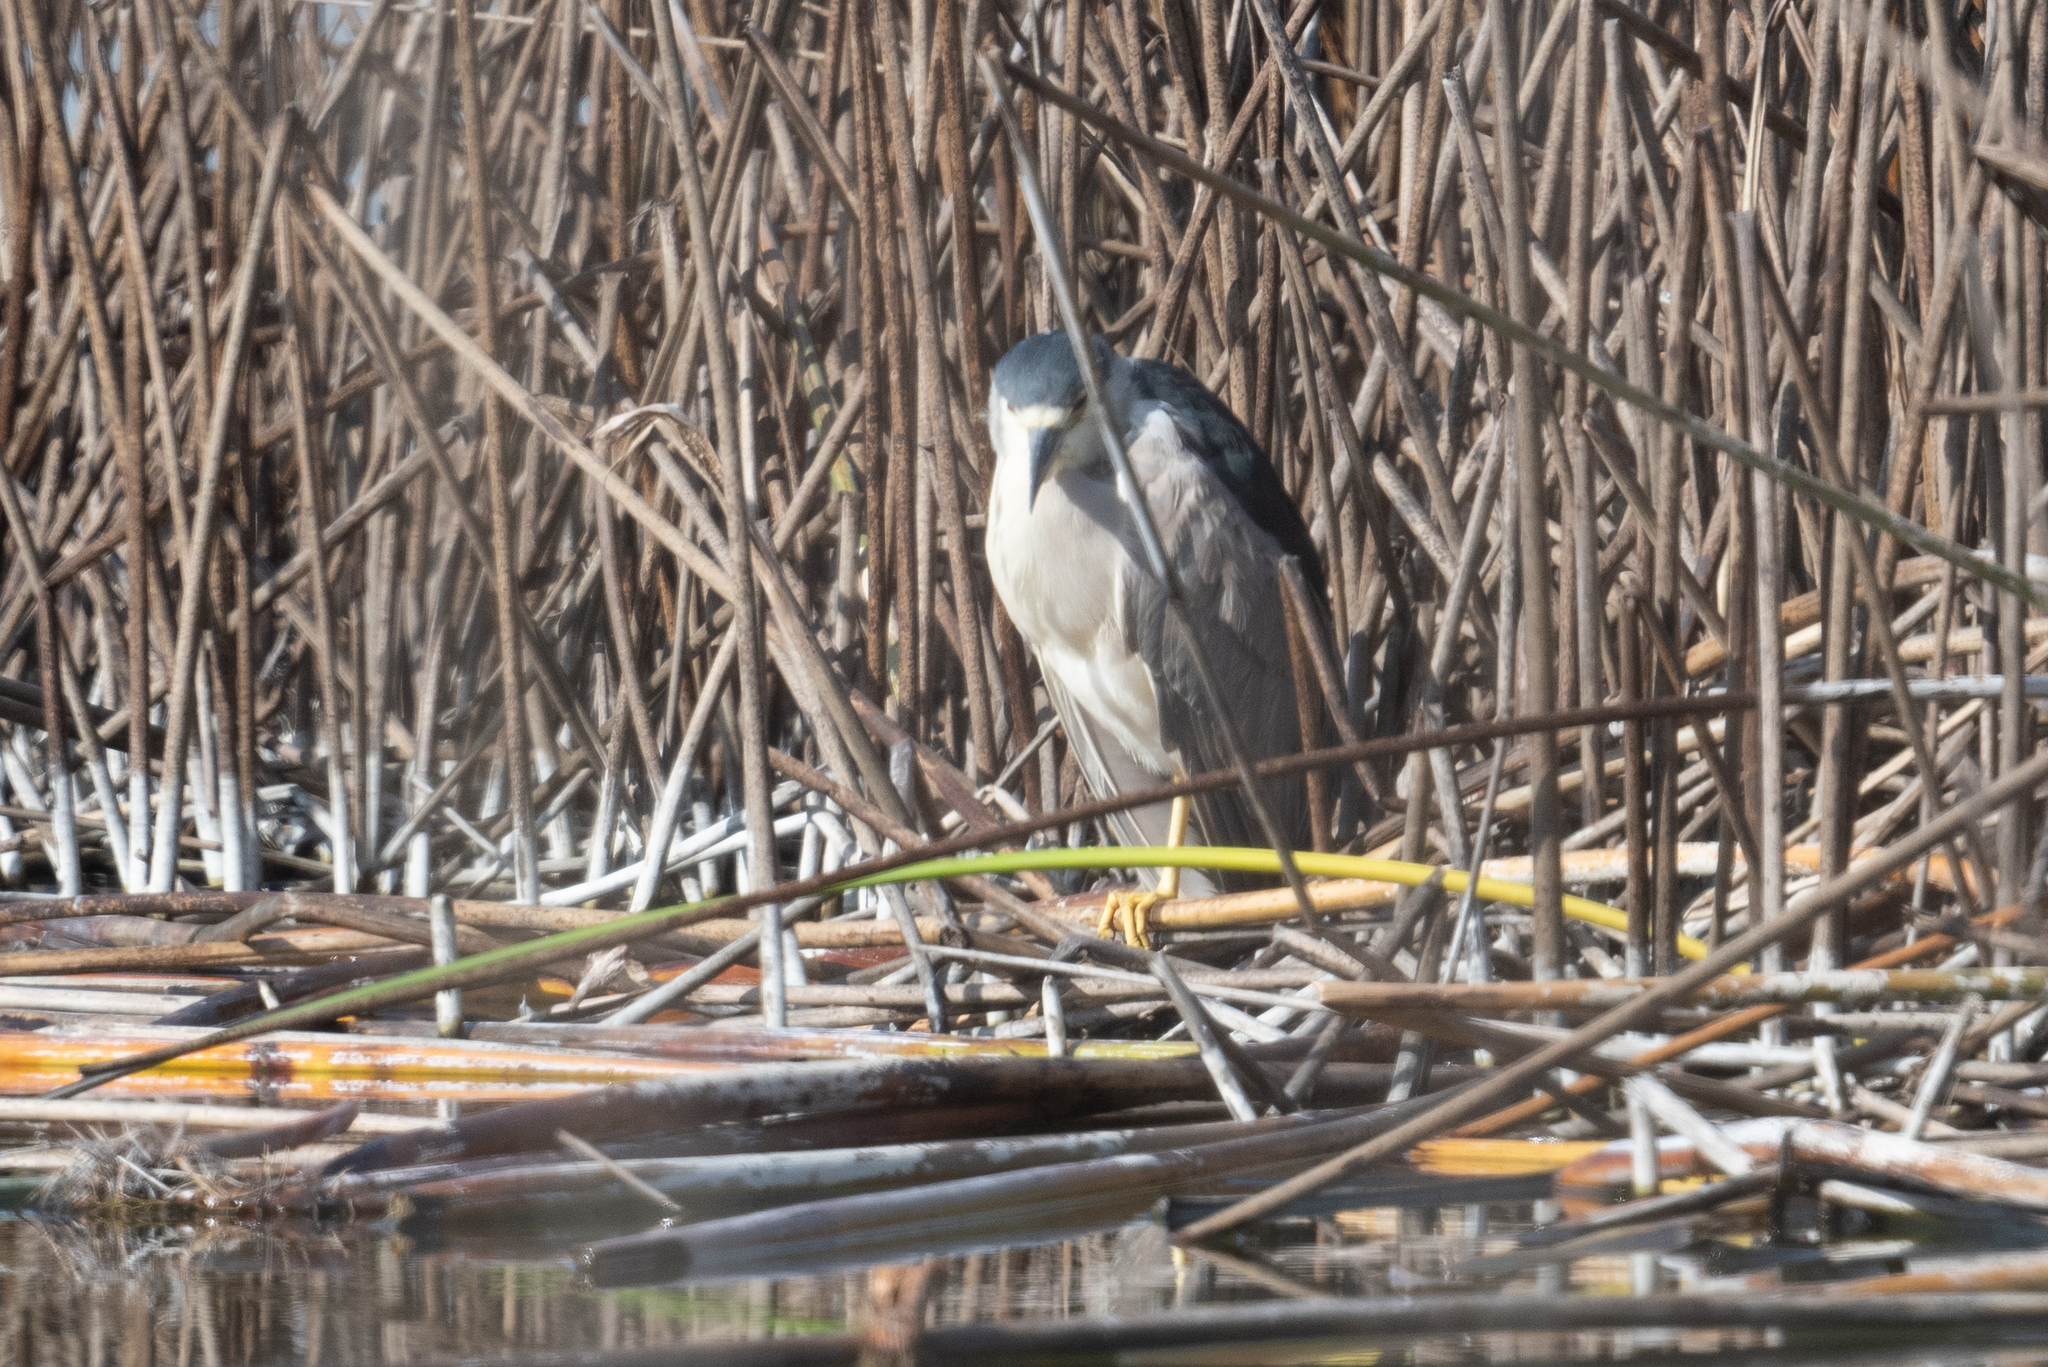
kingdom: Animalia
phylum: Chordata
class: Aves
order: Pelecaniformes
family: Ardeidae
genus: Nycticorax
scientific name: Nycticorax nycticorax
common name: Black-crowned night heron
